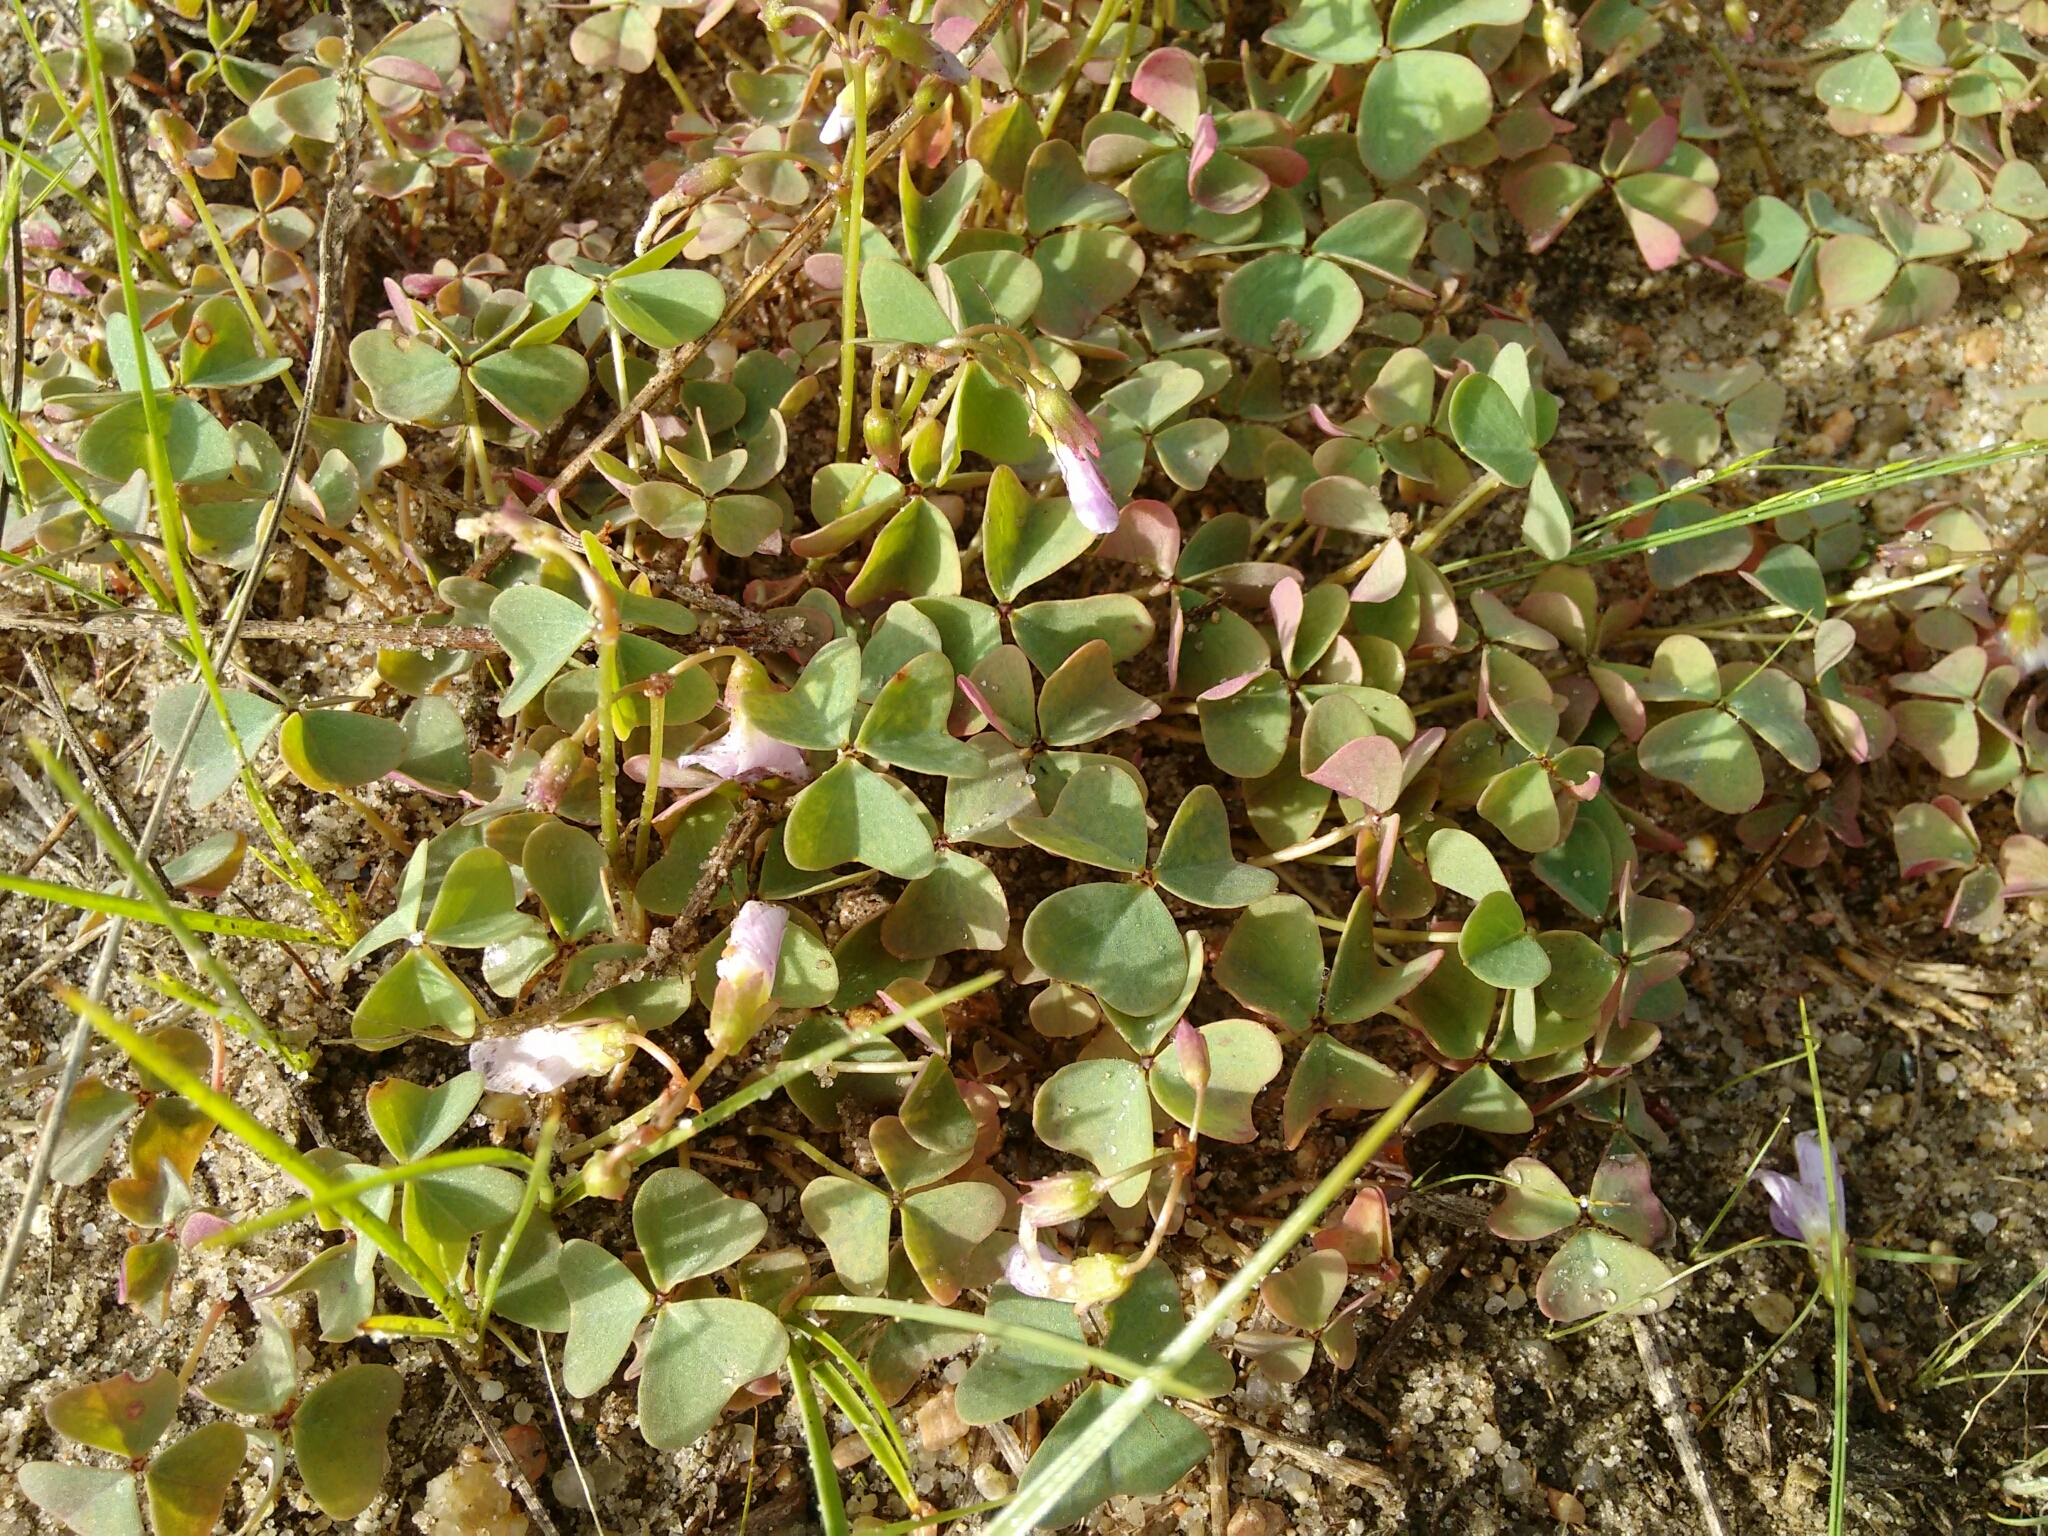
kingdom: Plantae
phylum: Tracheophyta
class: Magnoliopsida
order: Oxalidales
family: Oxalidaceae
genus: Oxalis
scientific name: Oxalis violacea
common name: Violet wood-sorrel
